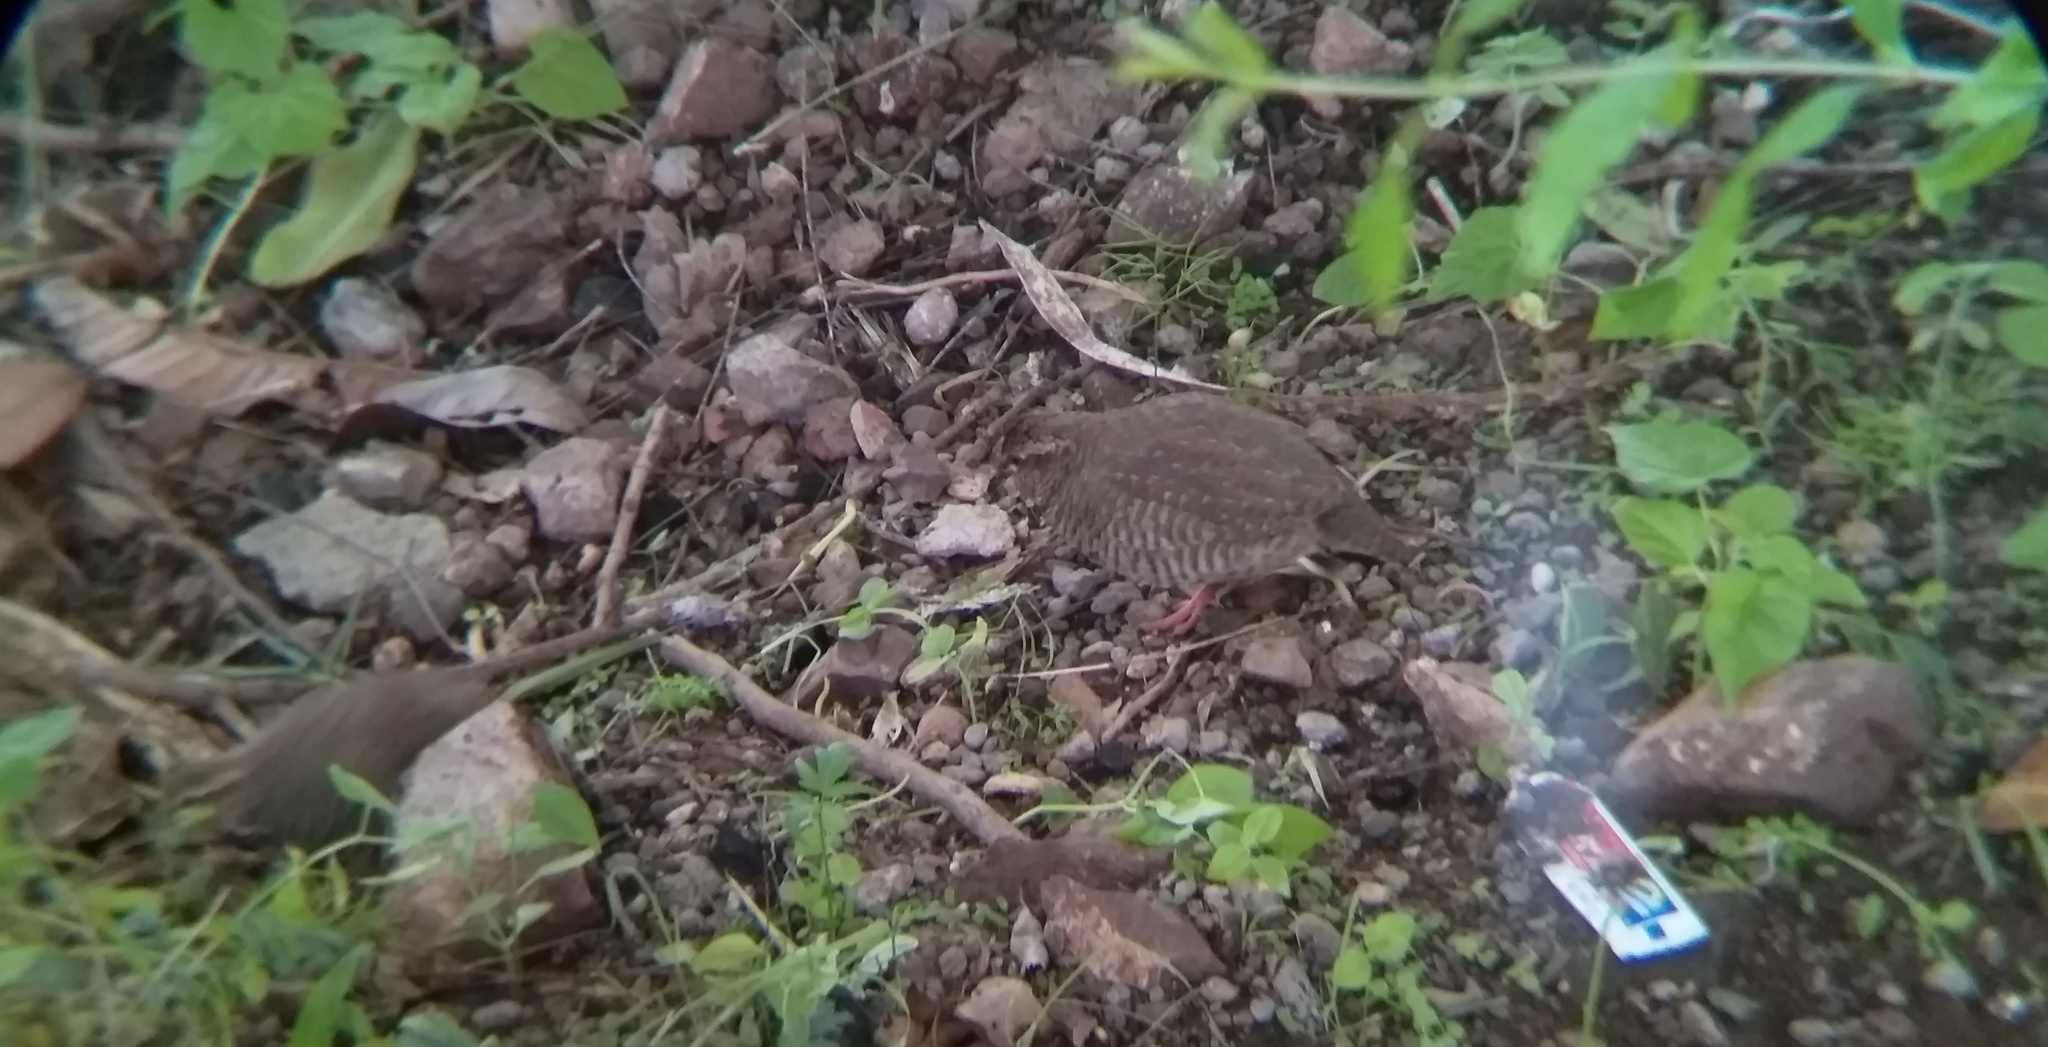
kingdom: Animalia
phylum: Chordata
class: Aves
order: Galliformes
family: Phasianidae
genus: Perdicula
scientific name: Perdicula argoondah
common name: Rock bush-quail
